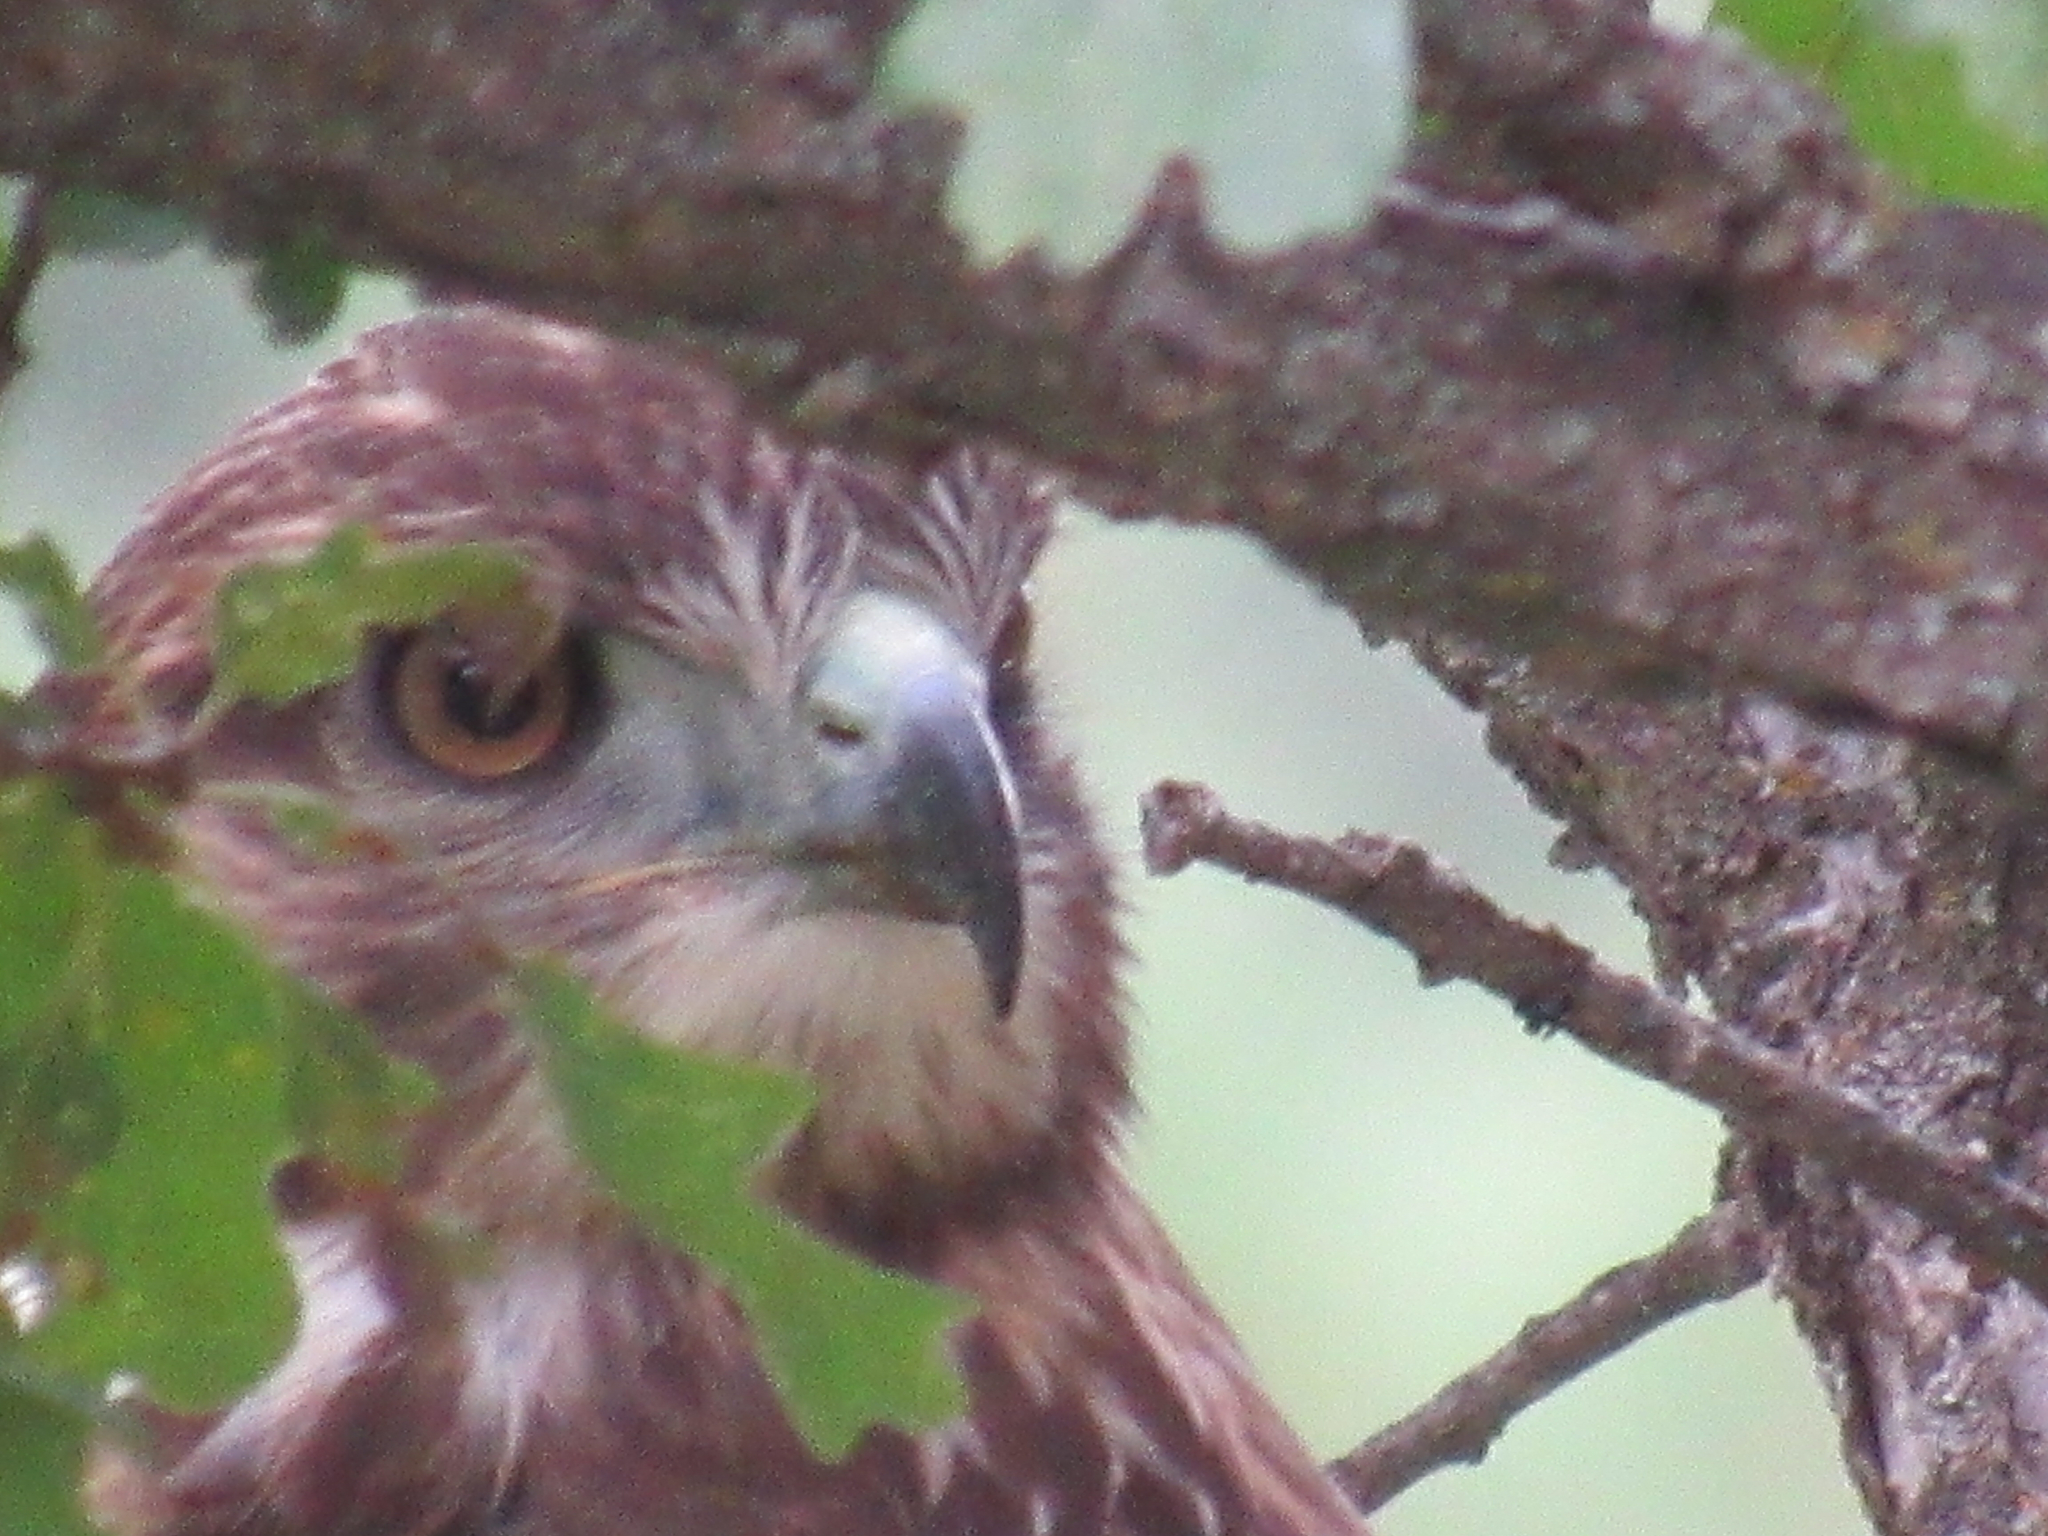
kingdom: Animalia
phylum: Chordata
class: Aves
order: Accipitriformes
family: Accipitridae
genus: Buteo
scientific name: Buteo jamaicensis
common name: Red-tailed hawk
